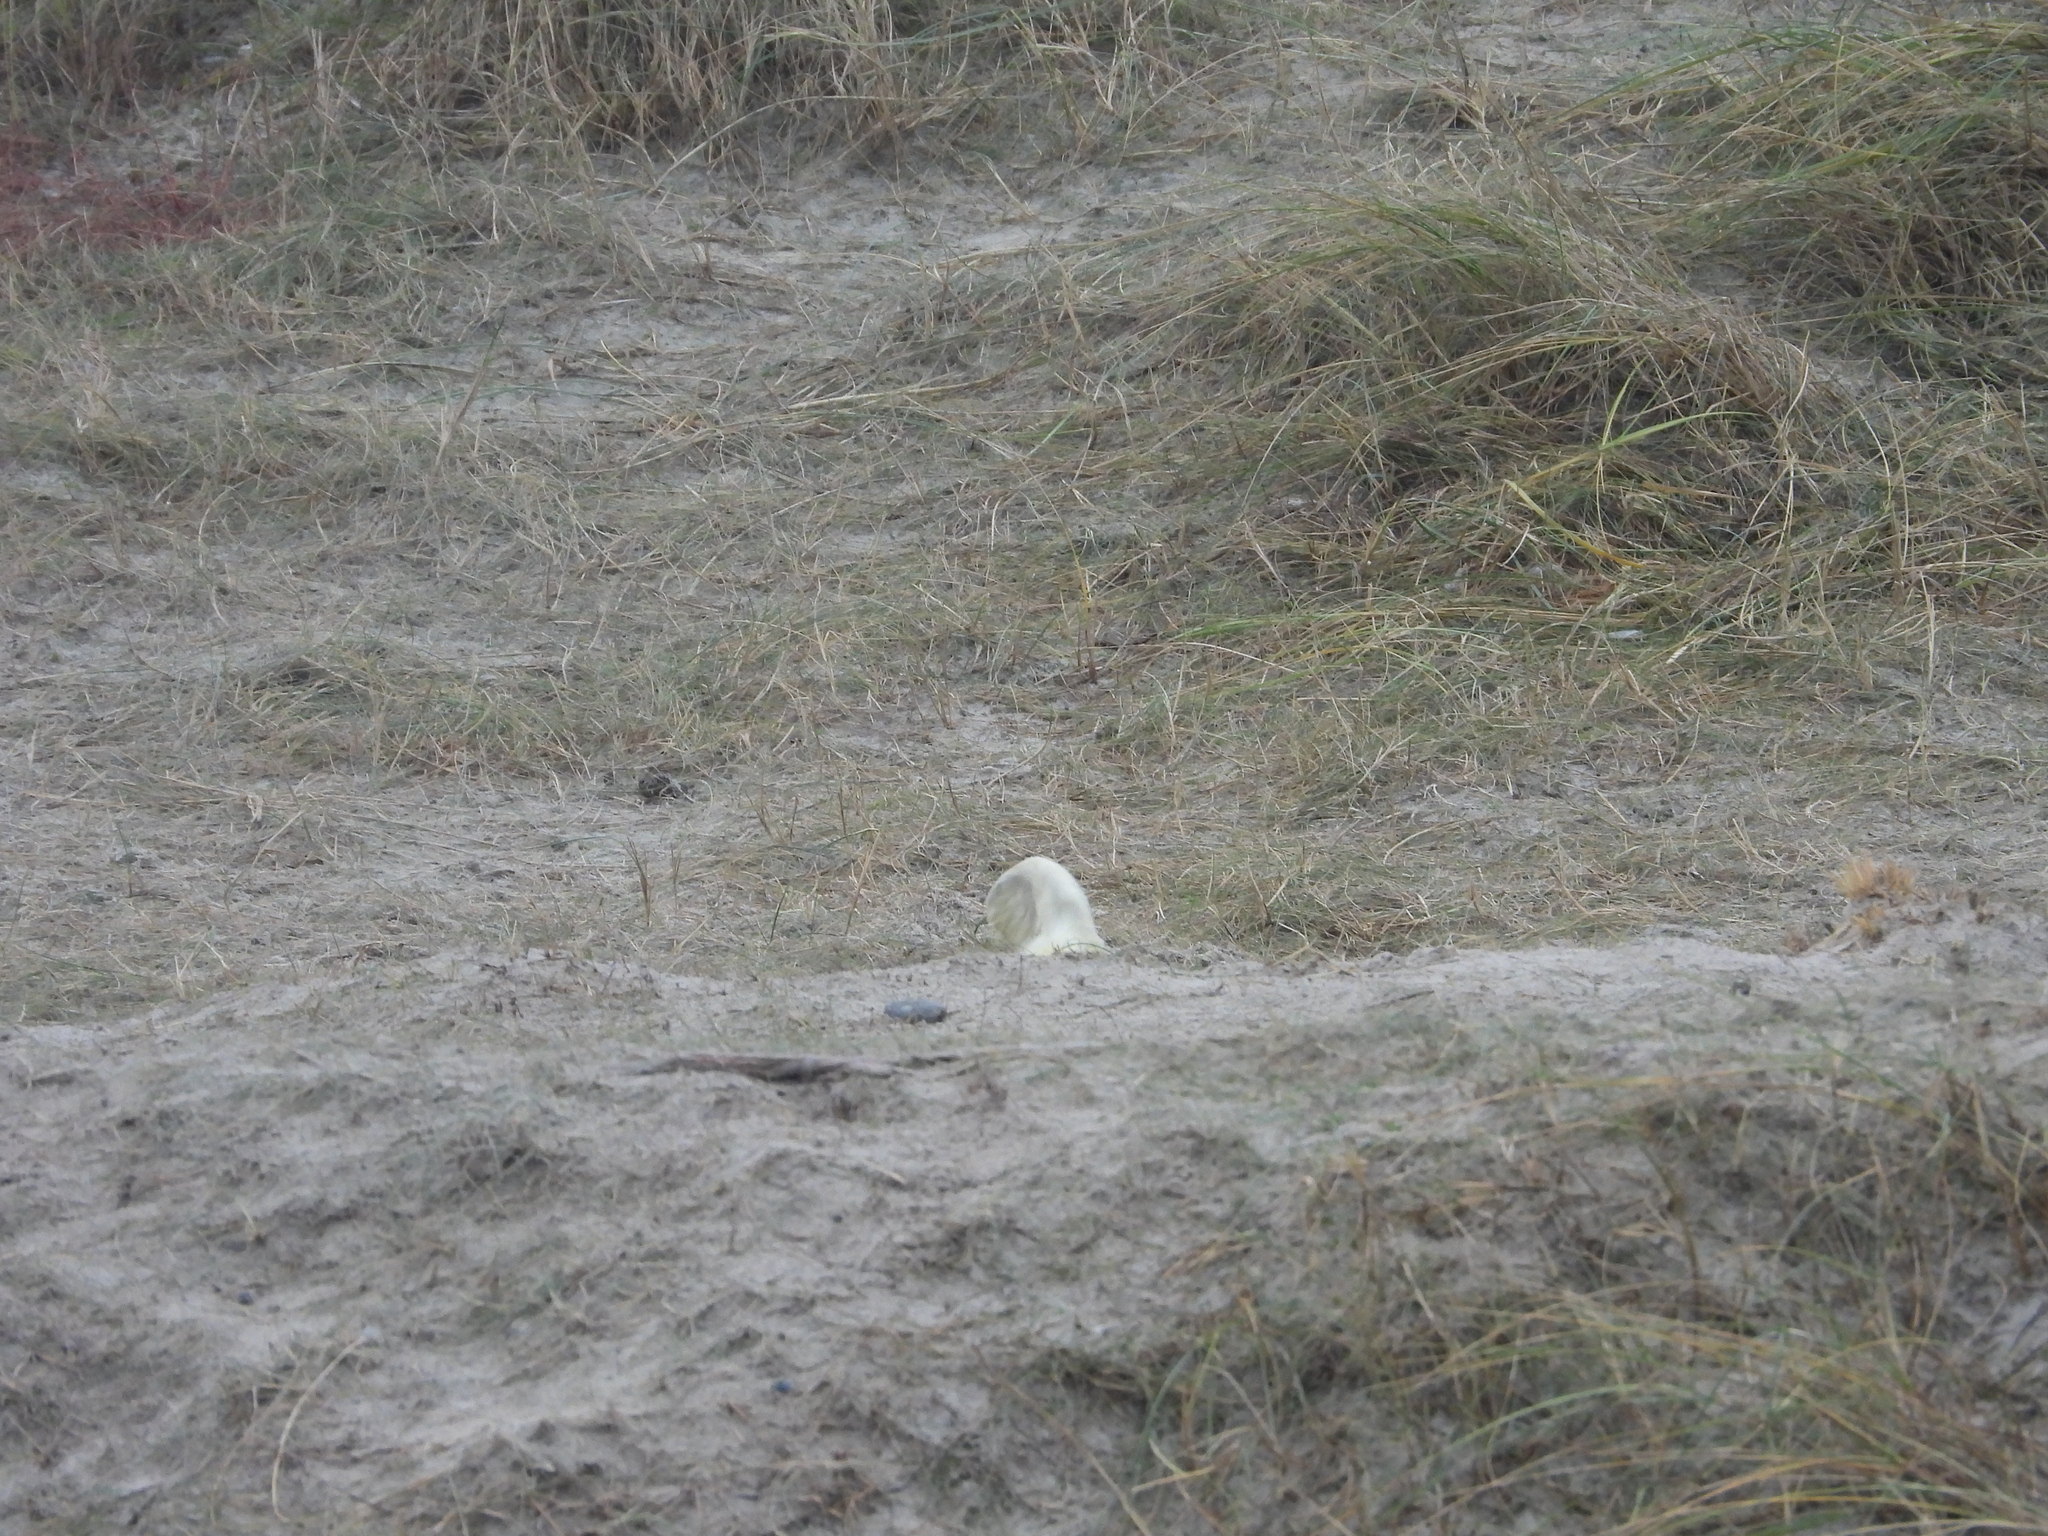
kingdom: Animalia
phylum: Chordata
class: Mammalia
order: Carnivora
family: Phocidae
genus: Halichoerus
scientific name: Halichoerus grypus
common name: Grey seal
